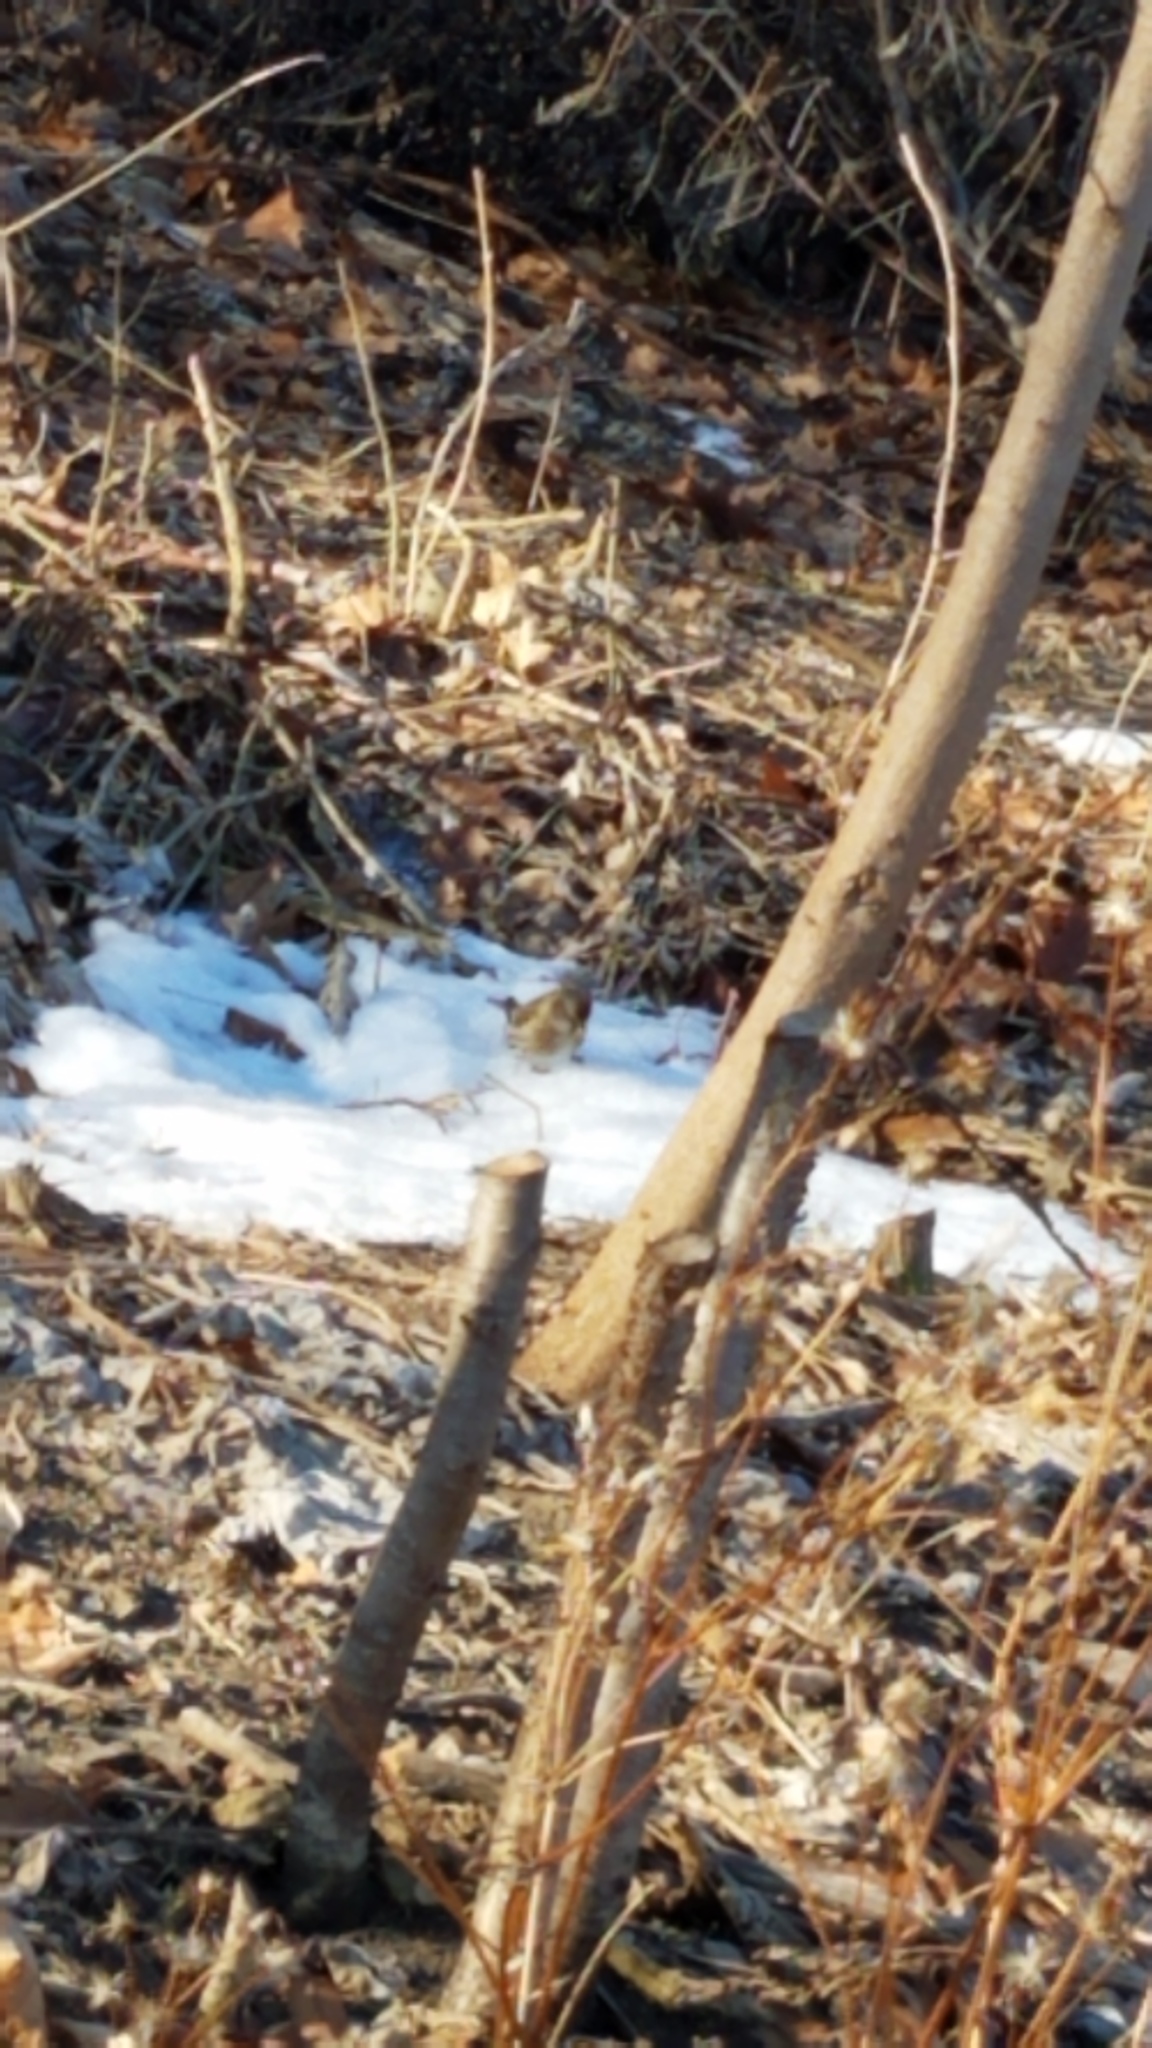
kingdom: Animalia
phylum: Chordata
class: Aves
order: Passeriformes
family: Fringillidae
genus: Acanthis
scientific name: Acanthis flammea
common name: Common redpoll
